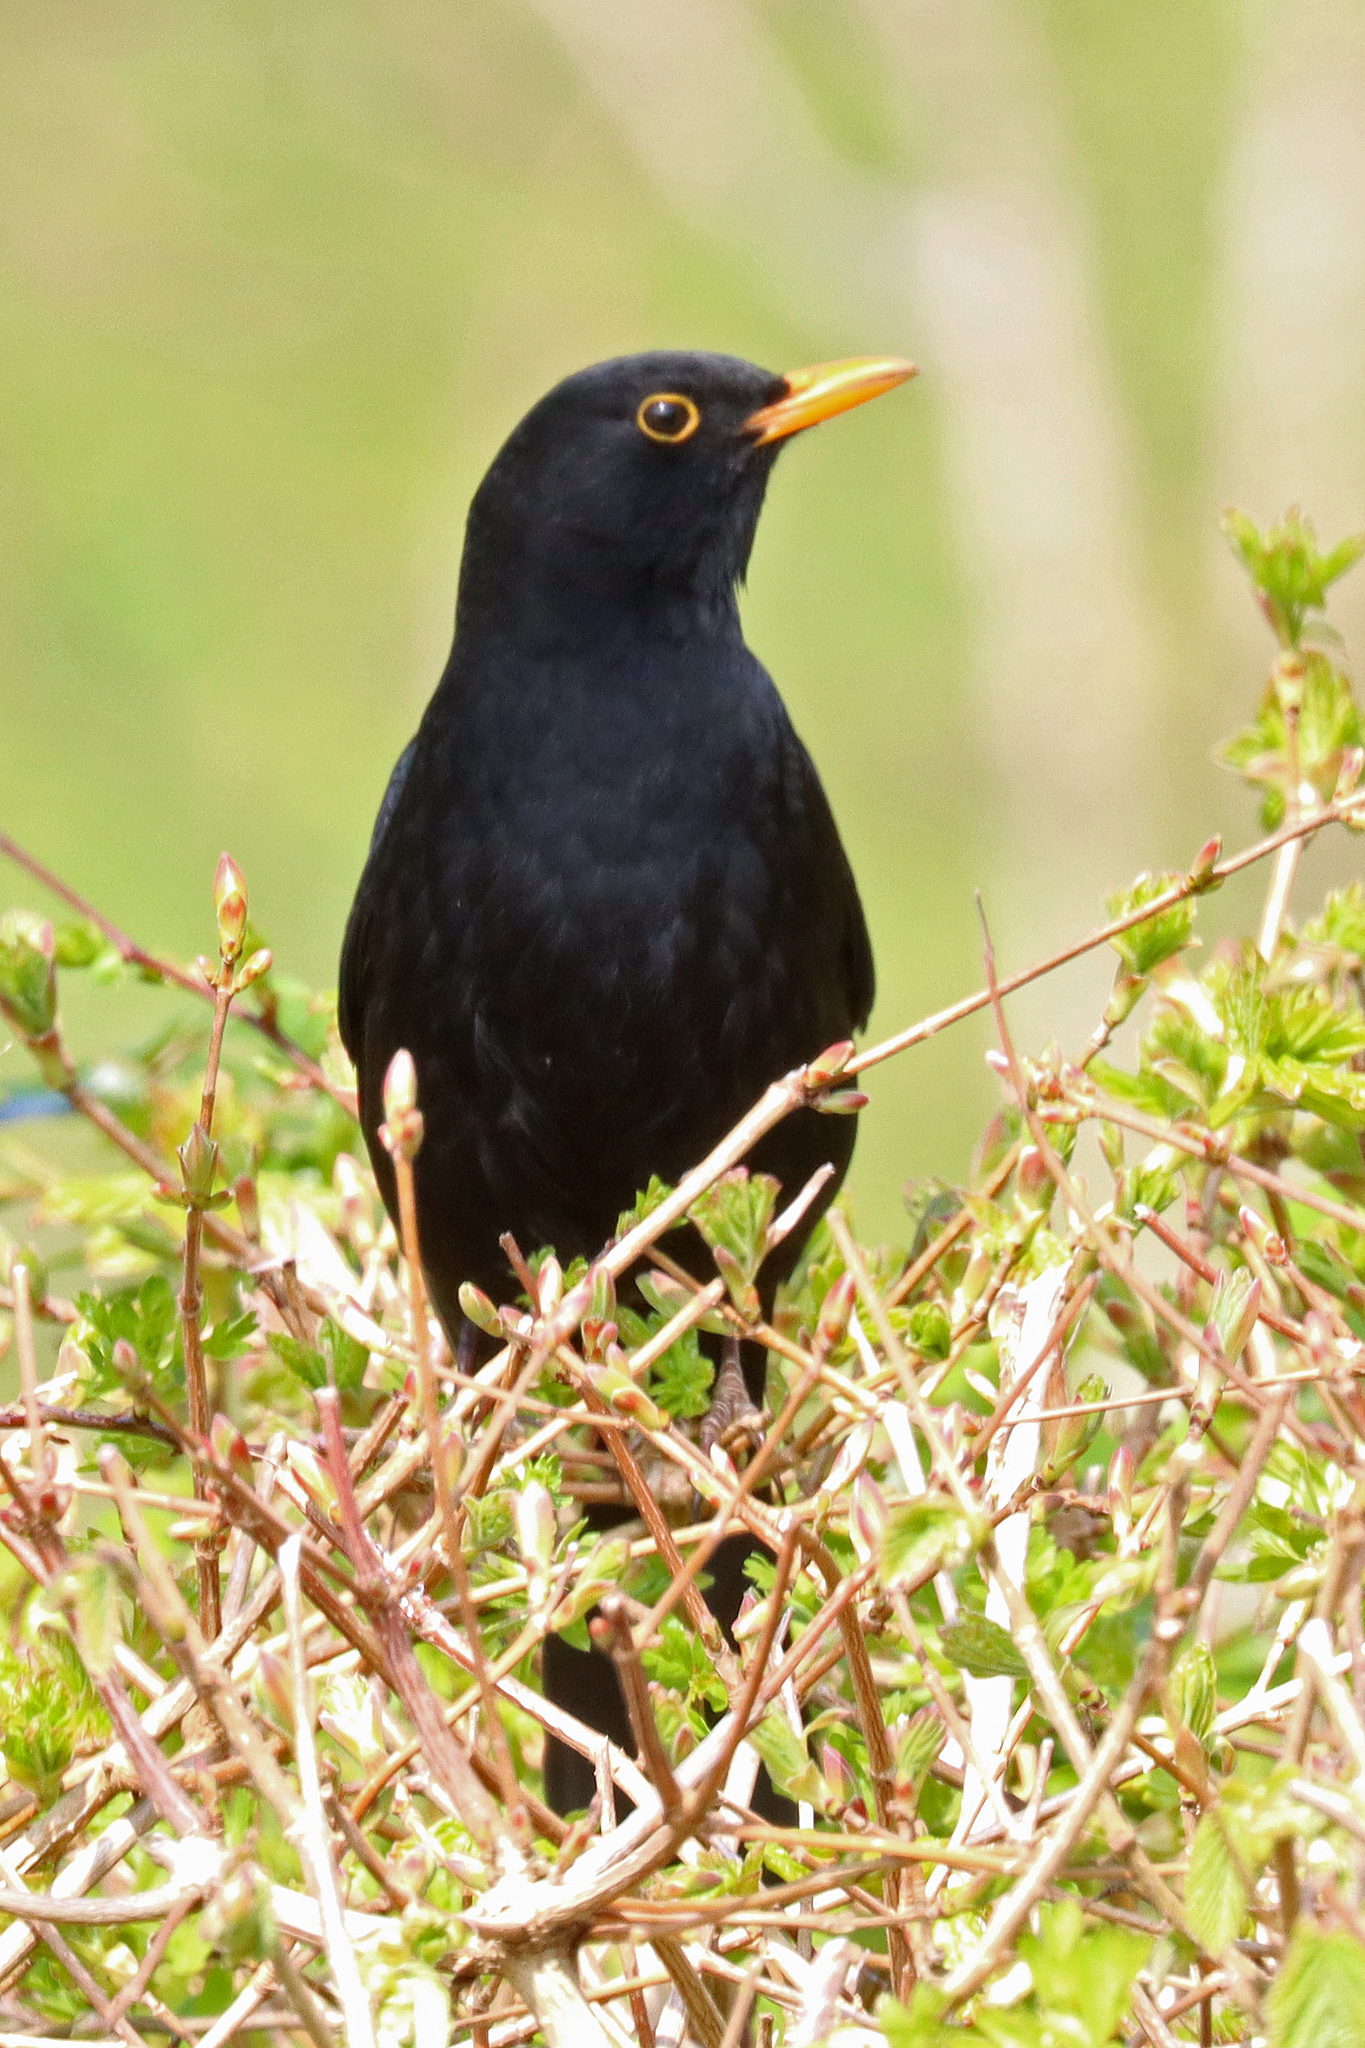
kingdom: Animalia
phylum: Chordata
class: Aves
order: Passeriformes
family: Turdidae
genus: Turdus
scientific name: Turdus merula
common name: Common blackbird
